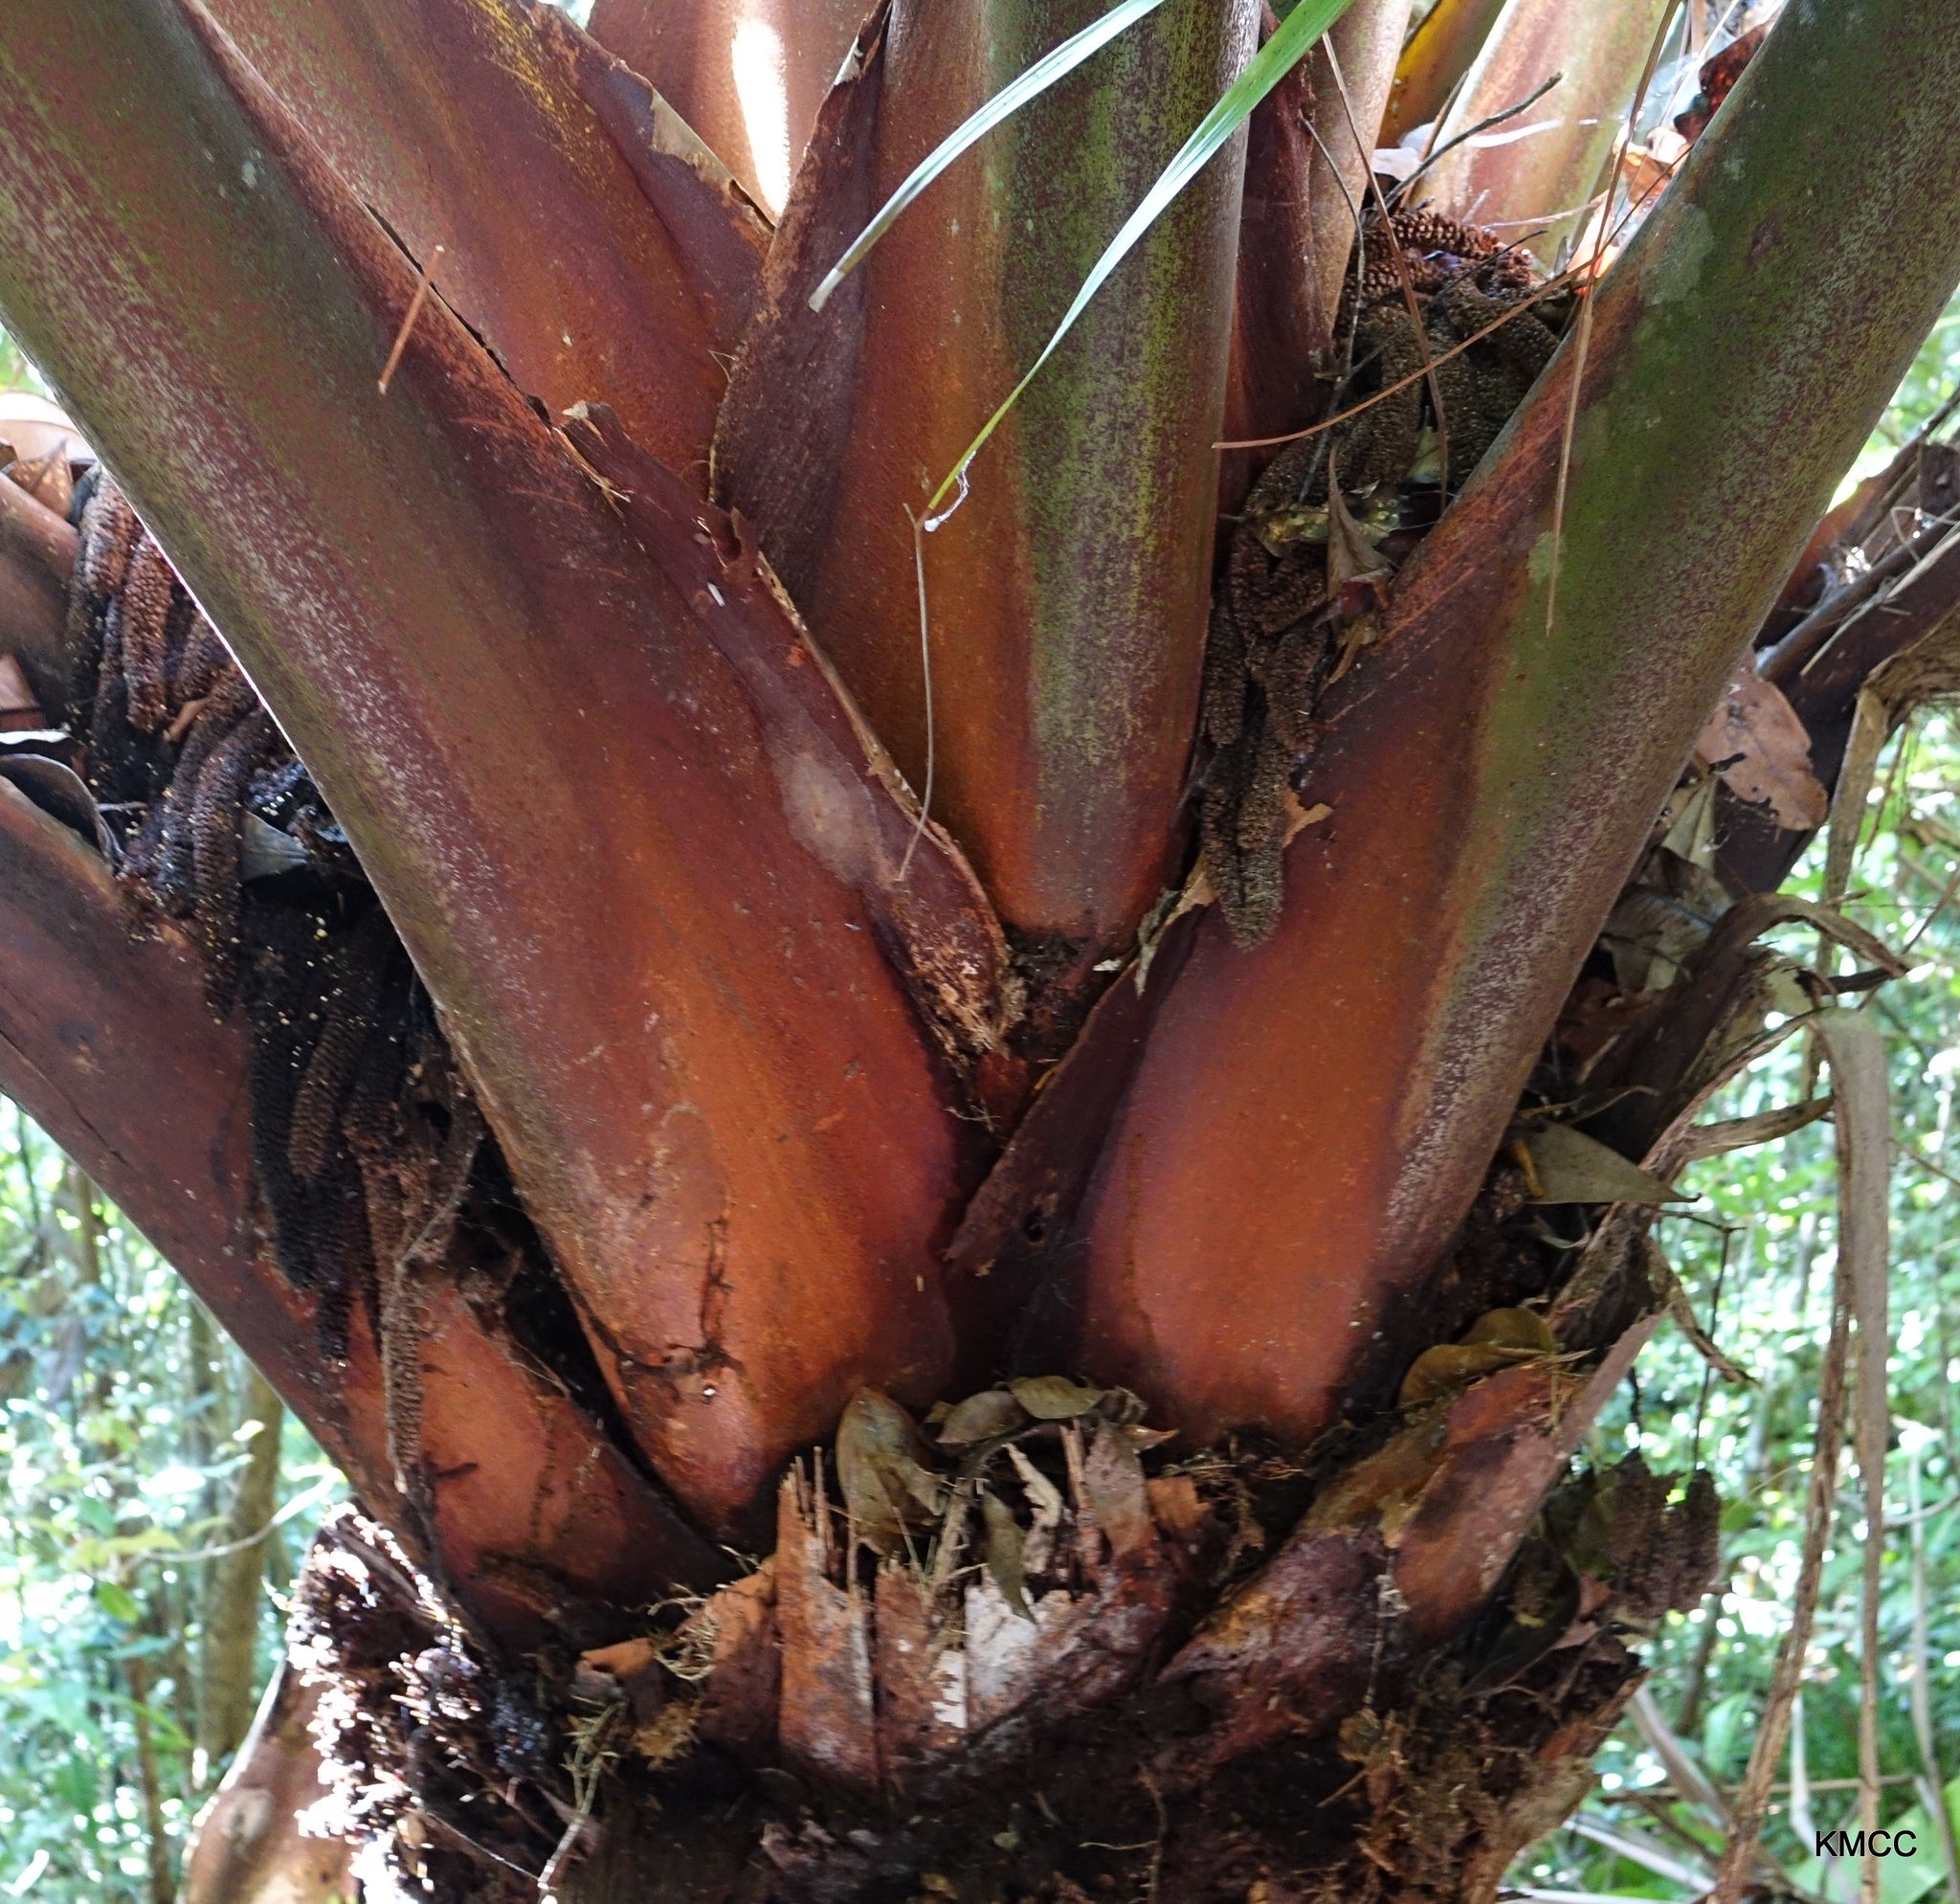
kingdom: Plantae
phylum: Tracheophyta
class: Liliopsida
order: Arecales
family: Arecaceae
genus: Marojejya
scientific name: Marojejya insignis
